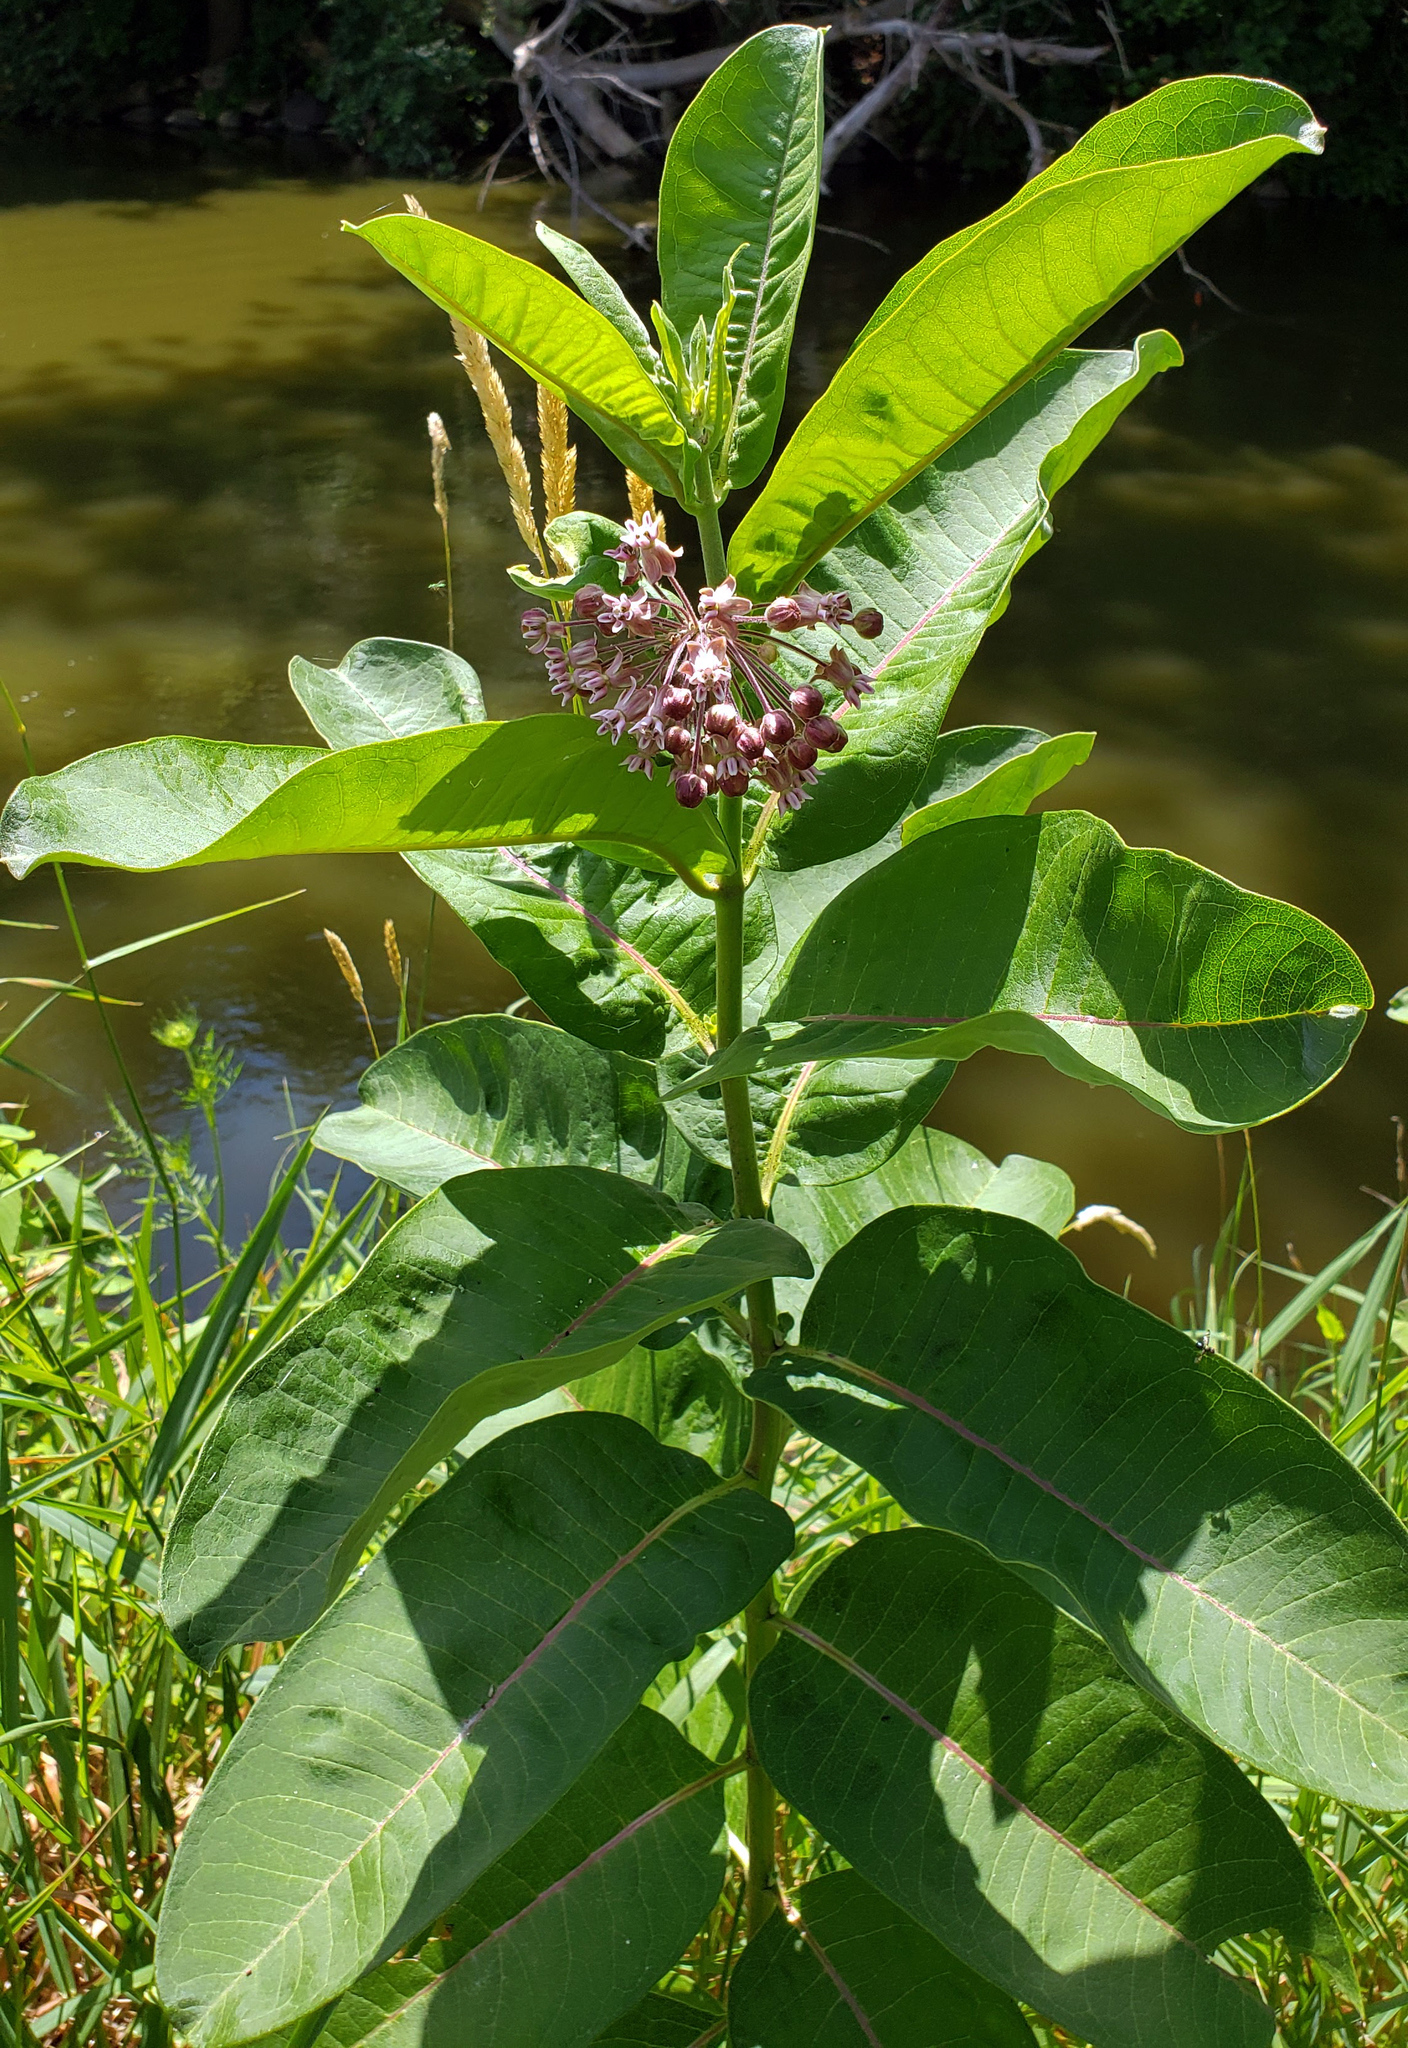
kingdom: Plantae
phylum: Tracheophyta
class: Magnoliopsida
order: Gentianales
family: Apocynaceae
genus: Asclepias
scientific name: Asclepias syriaca
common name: Common milkweed
